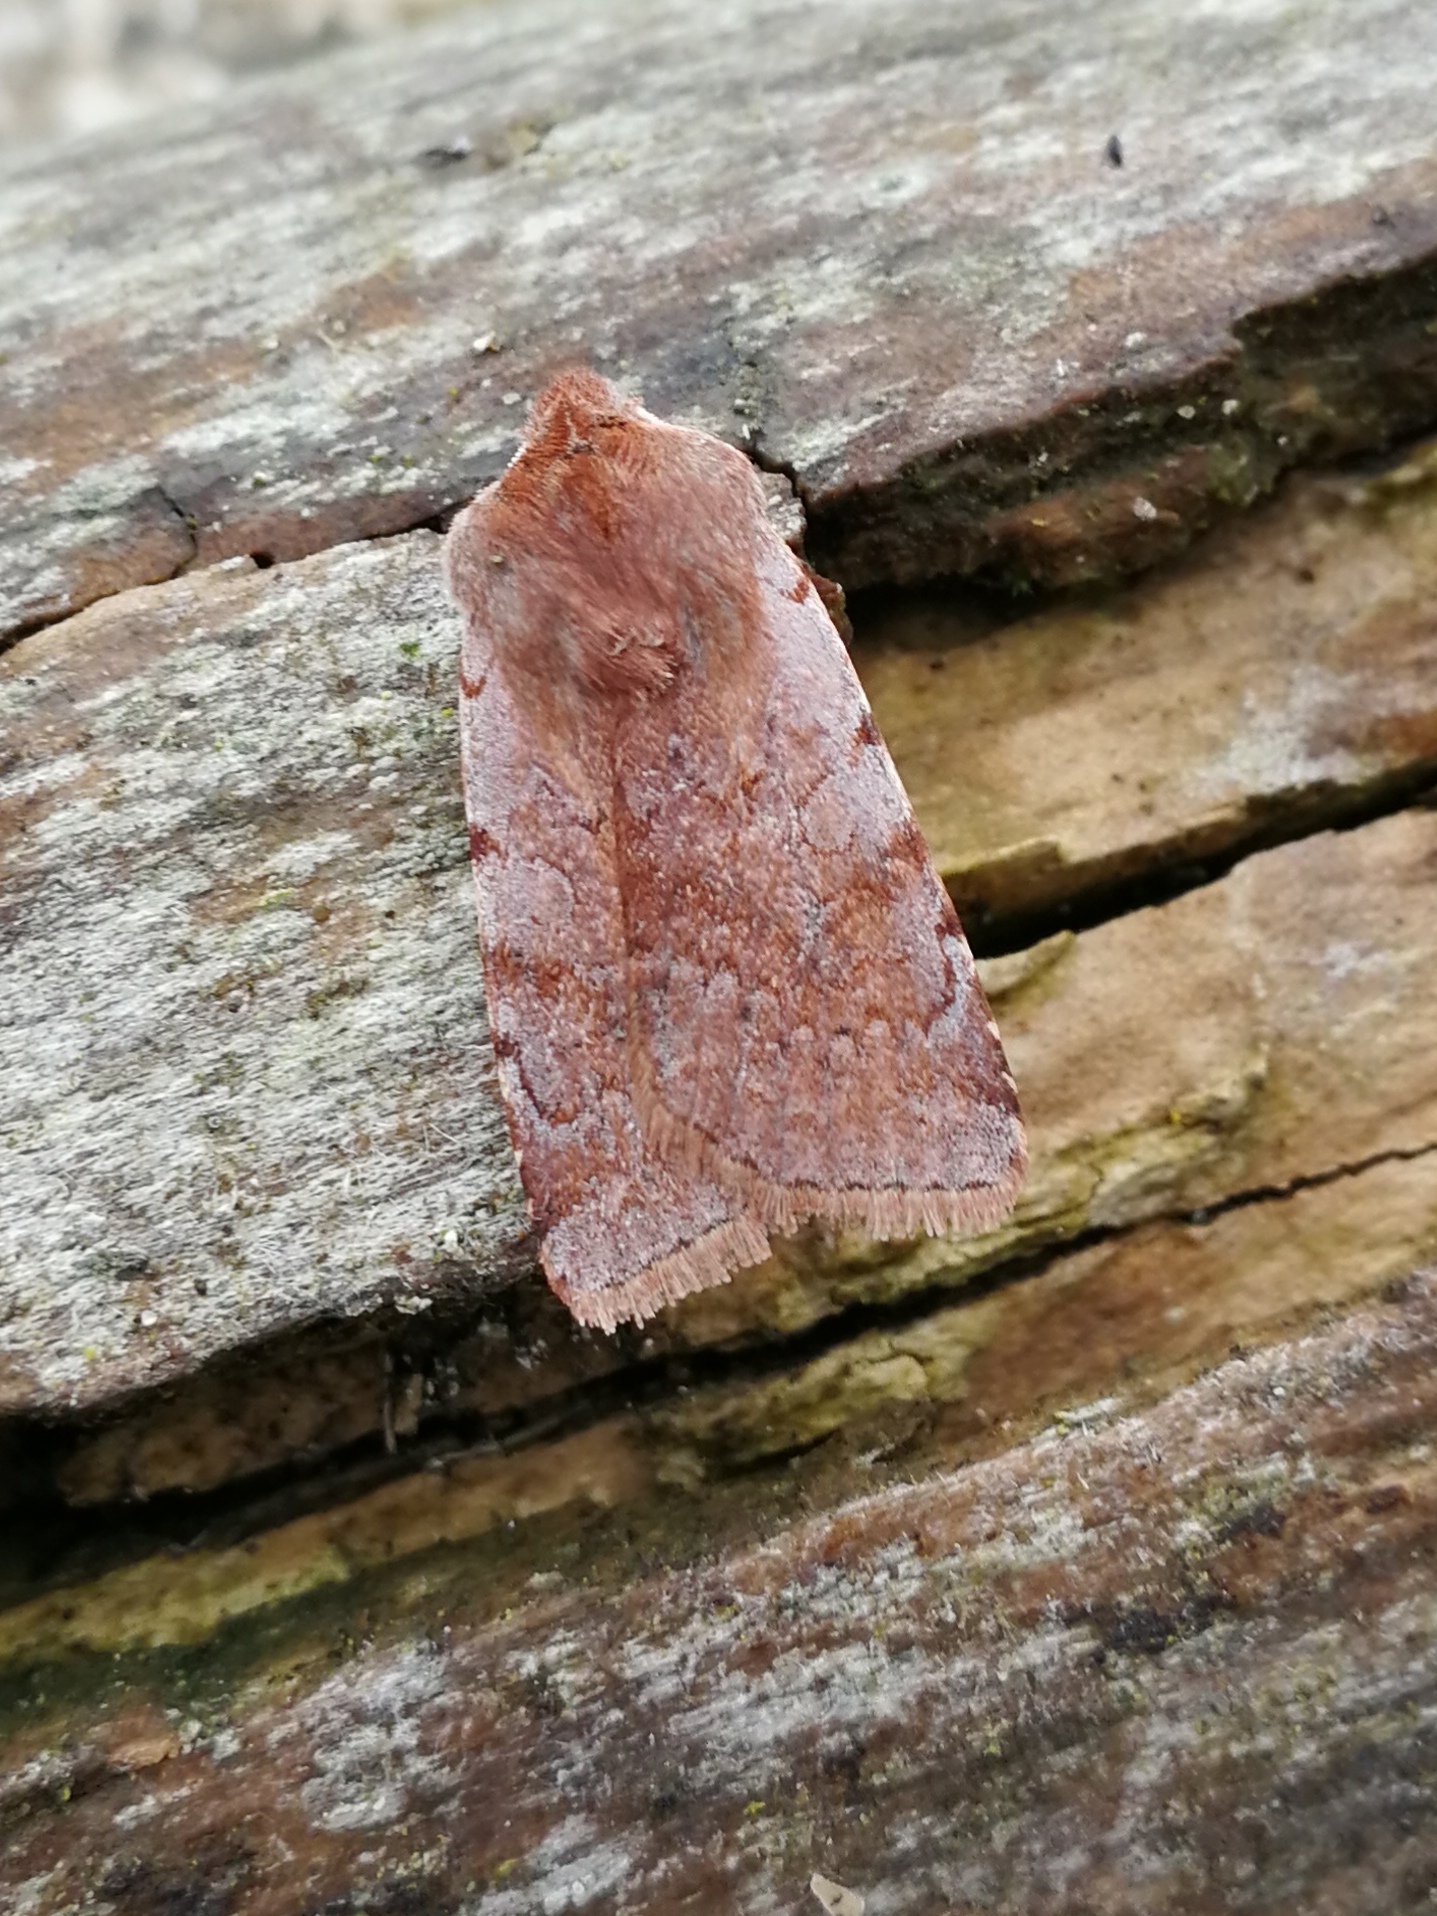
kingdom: Animalia
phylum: Arthropoda
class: Insecta
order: Lepidoptera
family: Noctuidae
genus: Cerastis
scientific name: Cerastis rubricosa
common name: Red chestnut
